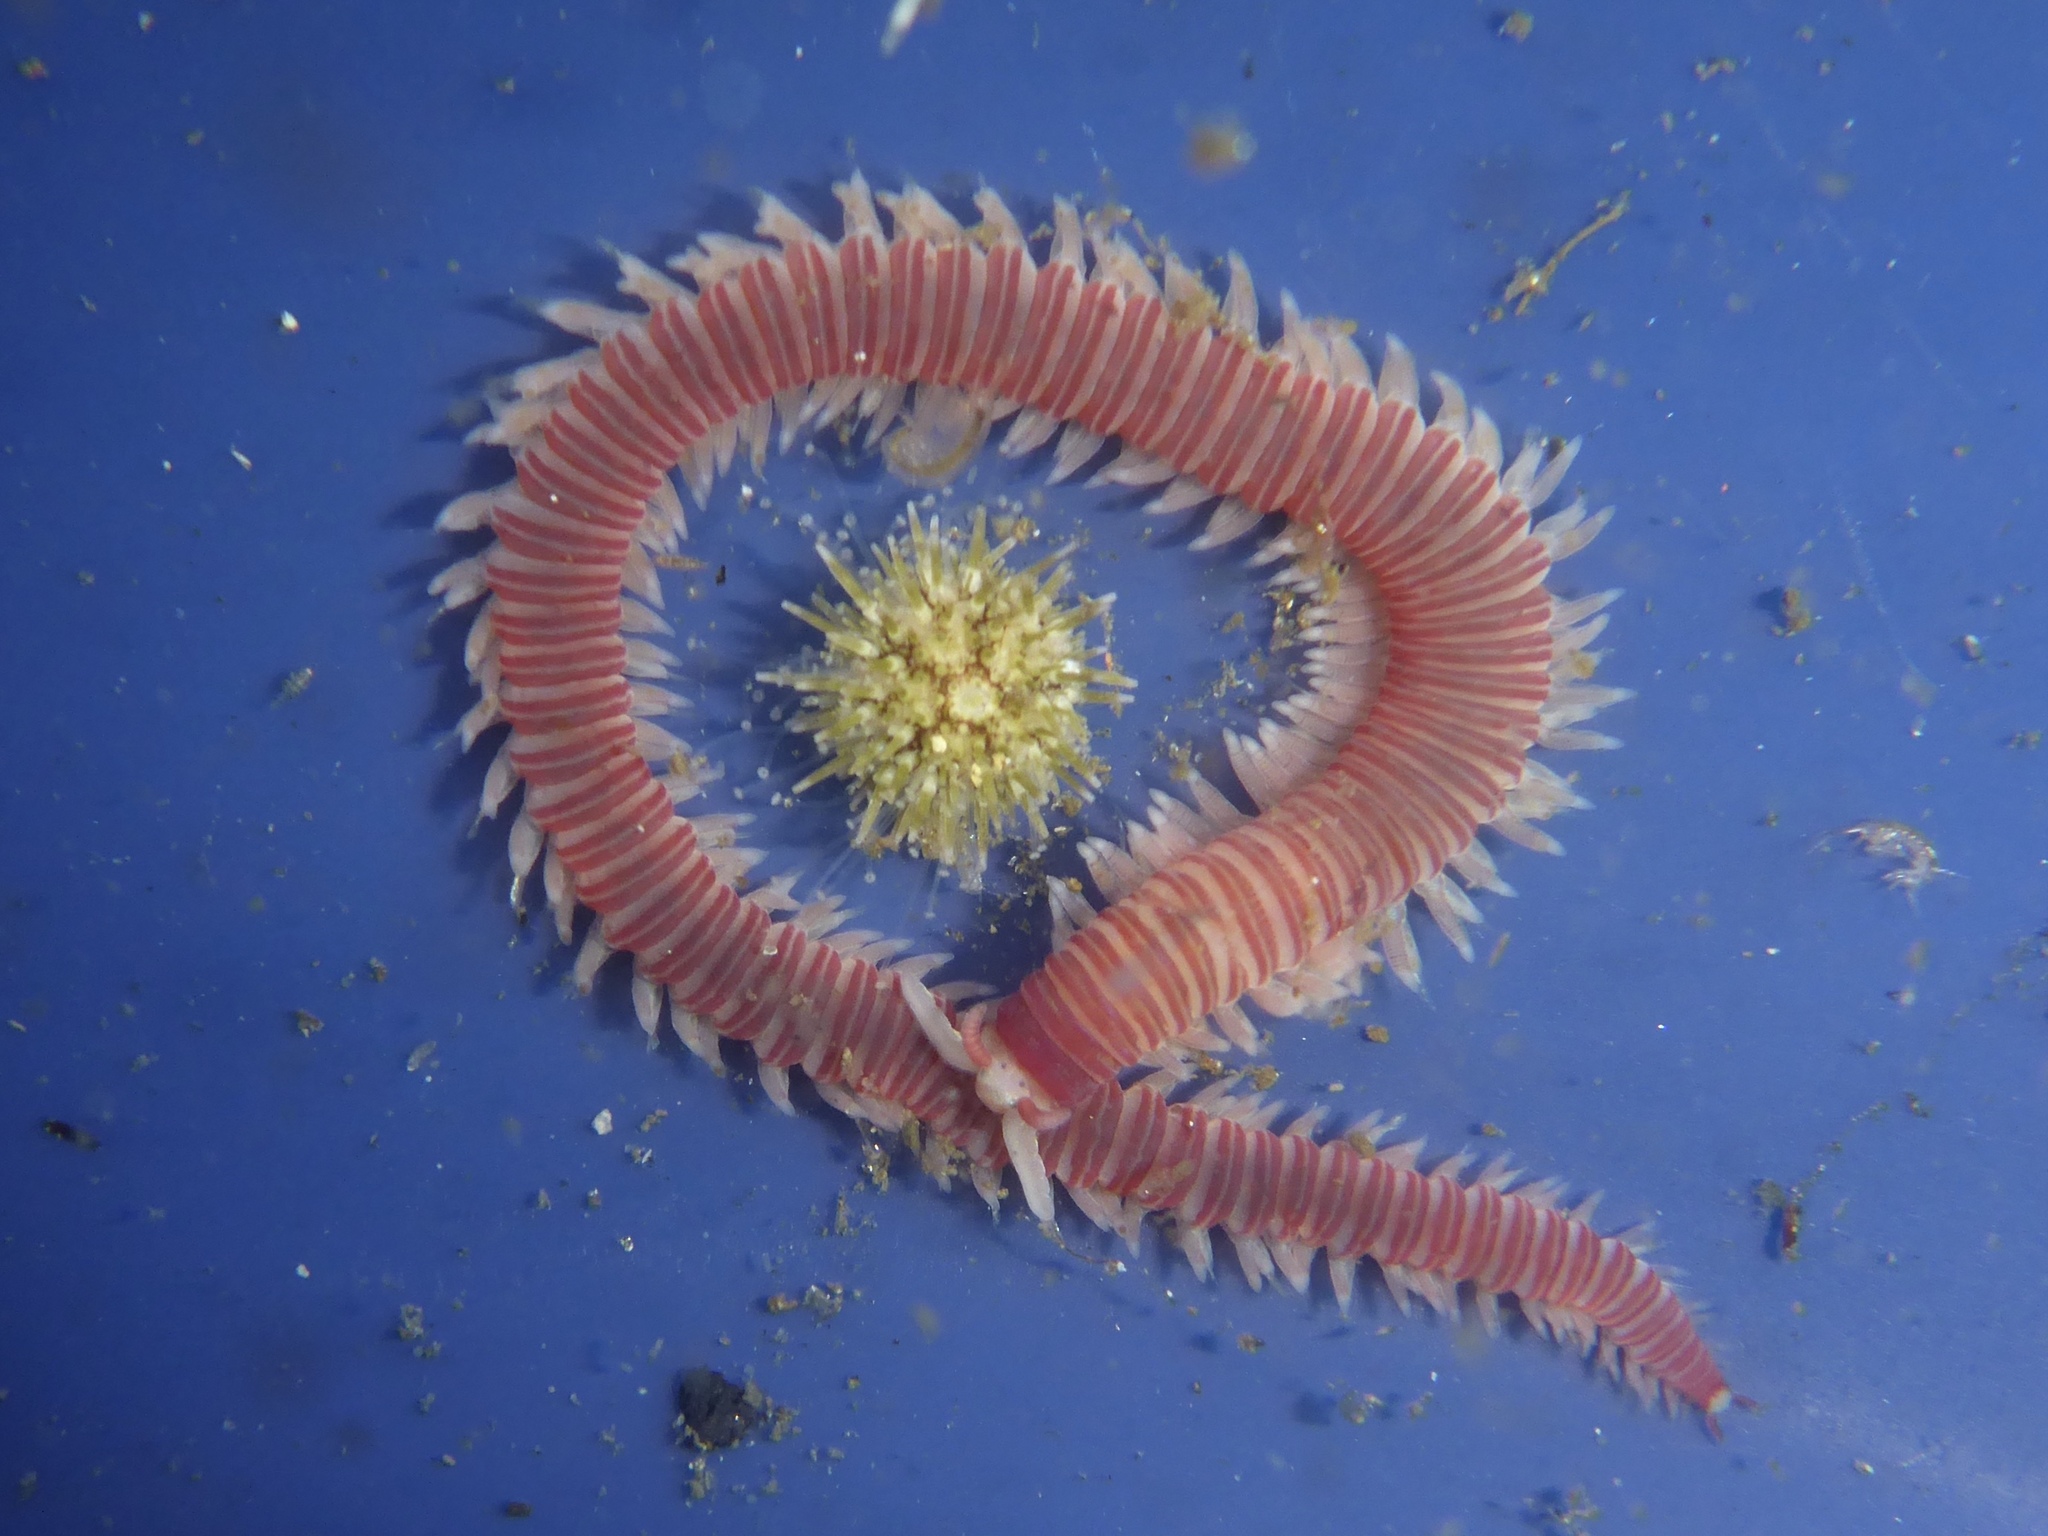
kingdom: Animalia
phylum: Annelida
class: Polychaeta
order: Eunicida
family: Dorvilleidae
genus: Dorvillea
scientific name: Dorvillea moniloceras
